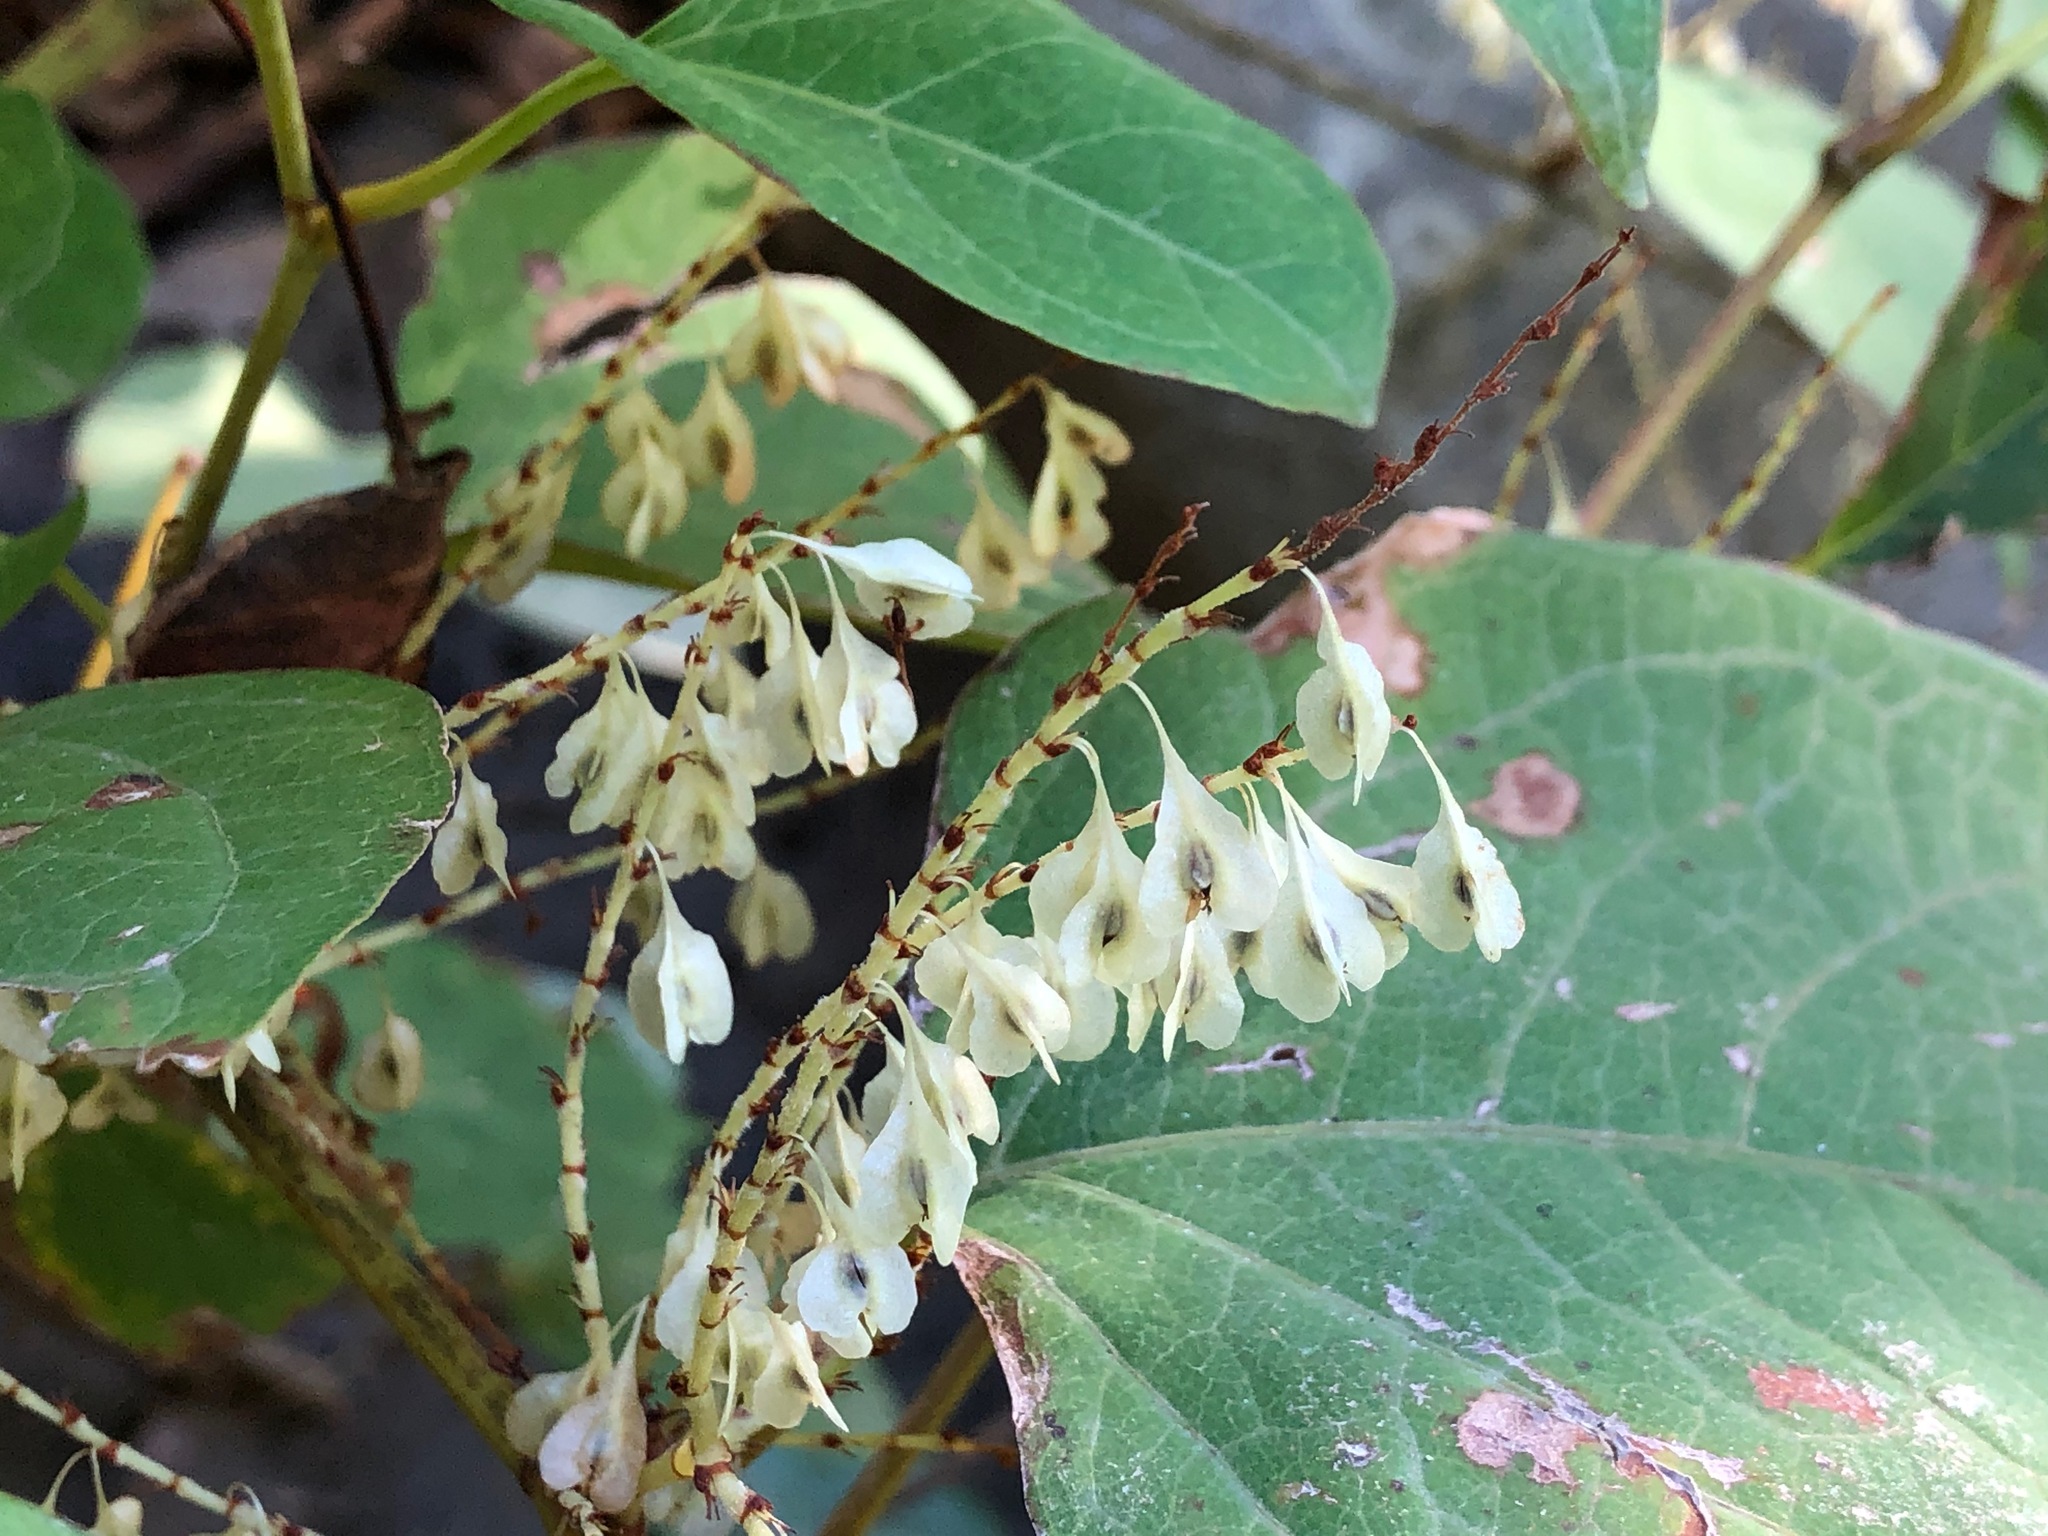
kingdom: Plantae
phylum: Tracheophyta
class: Magnoliopsida
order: Caryophyllales
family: Polygonaceae
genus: Reynoutria
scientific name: Reynoutria japonica
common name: Japanese knotweed
